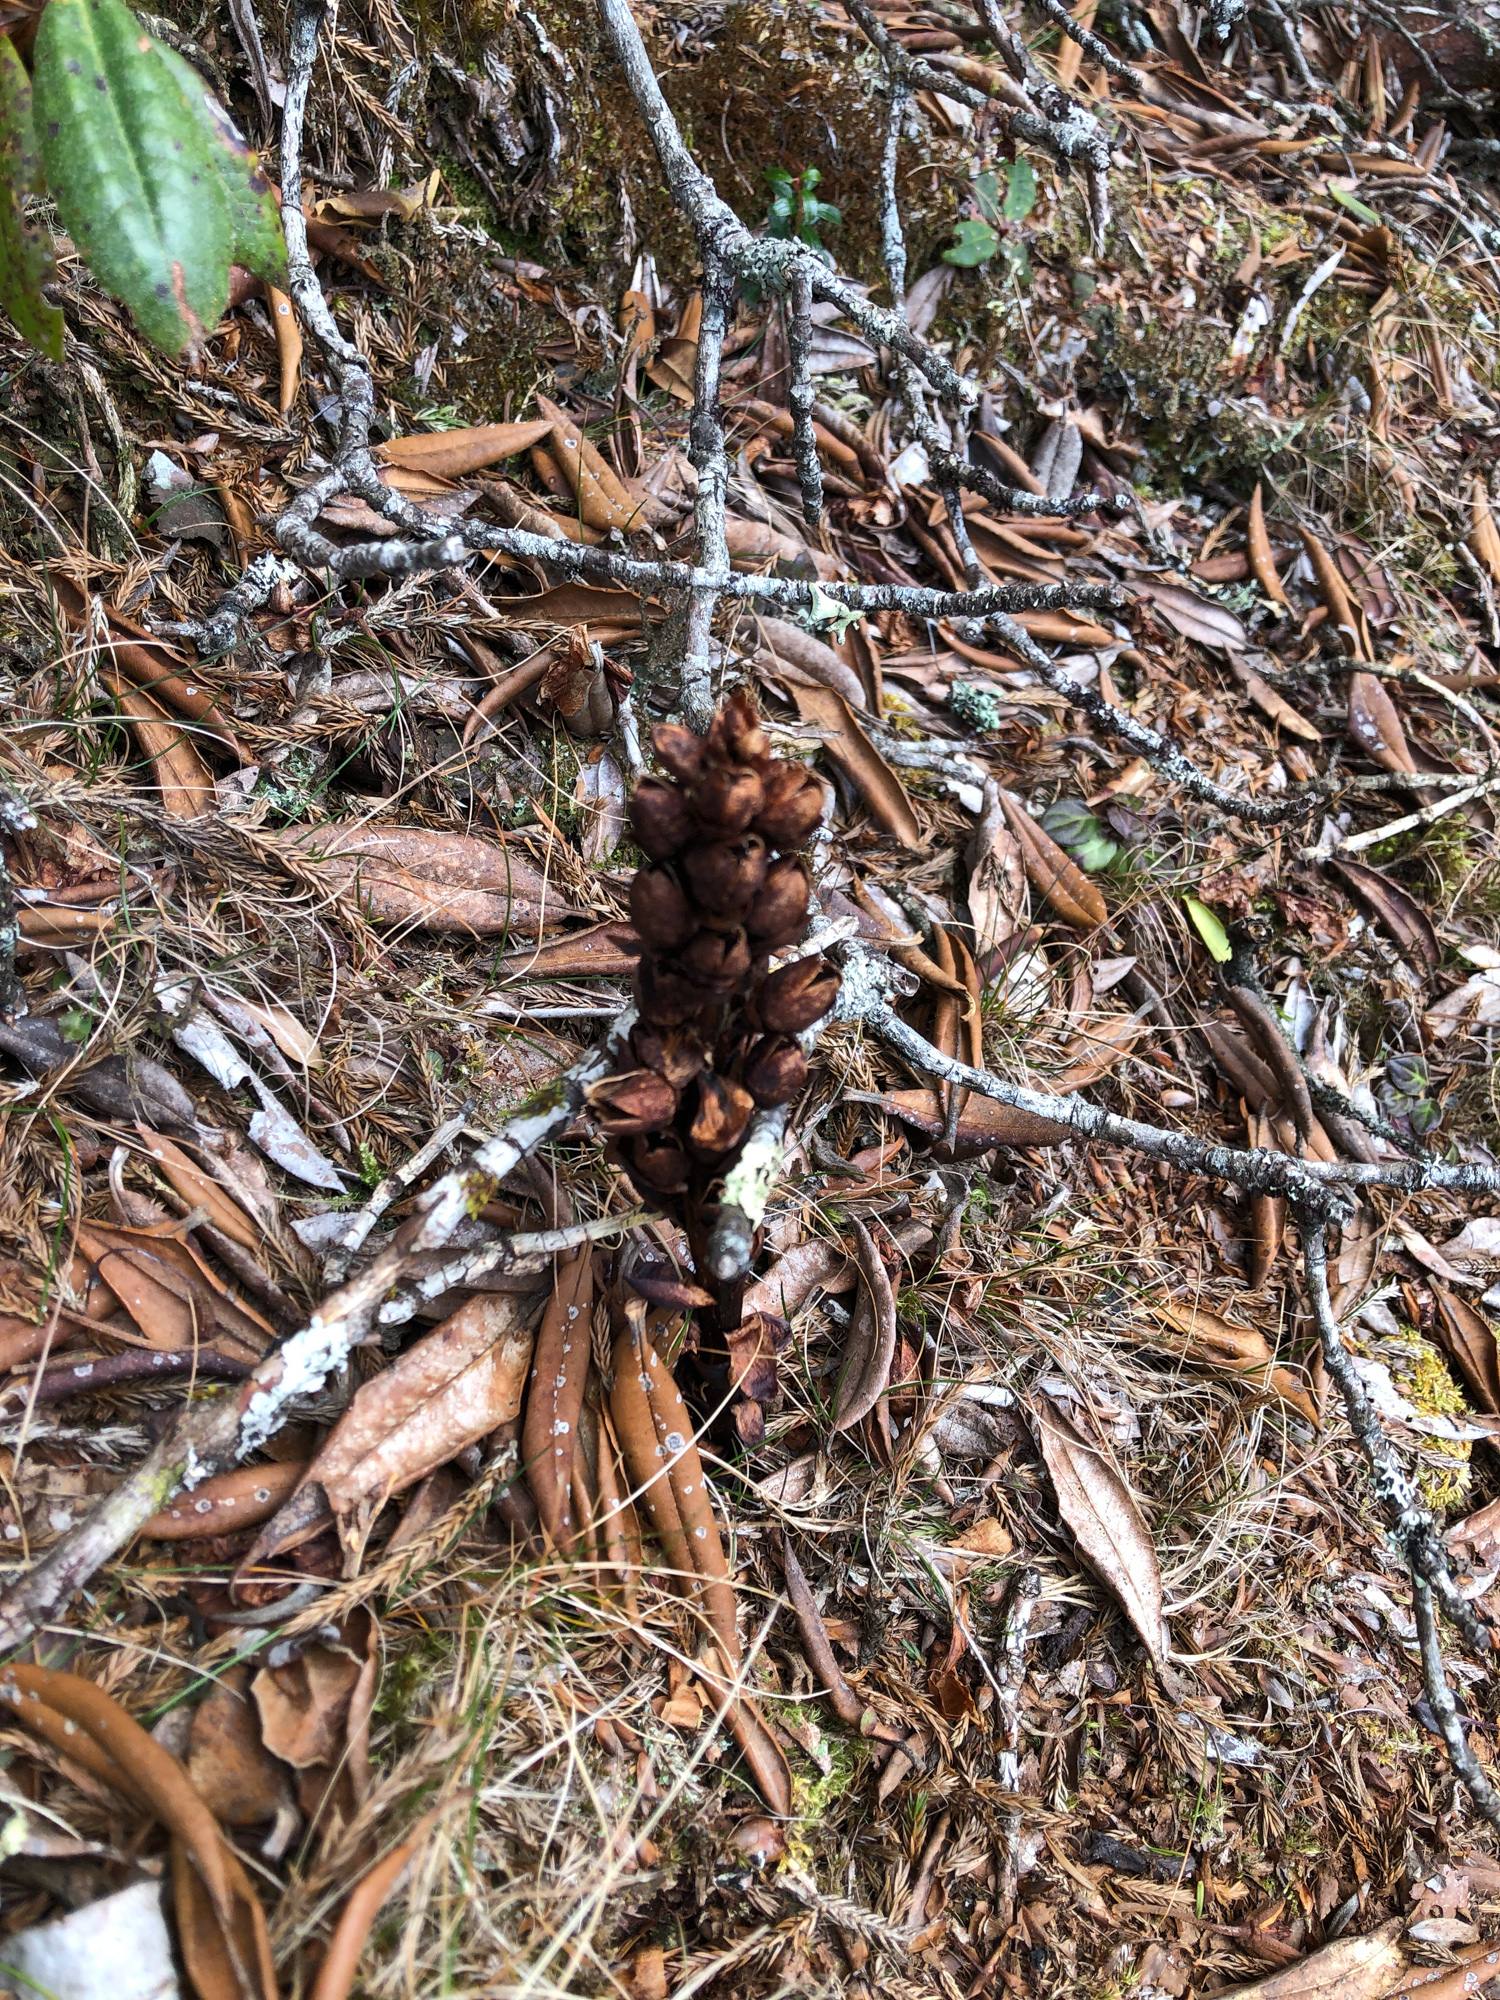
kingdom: Plantae
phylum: Tracheophyta
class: Magnoliopsida
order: Lamiales
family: Orobanchaceae
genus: Boschniakia
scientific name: Boschniakia himalaica
